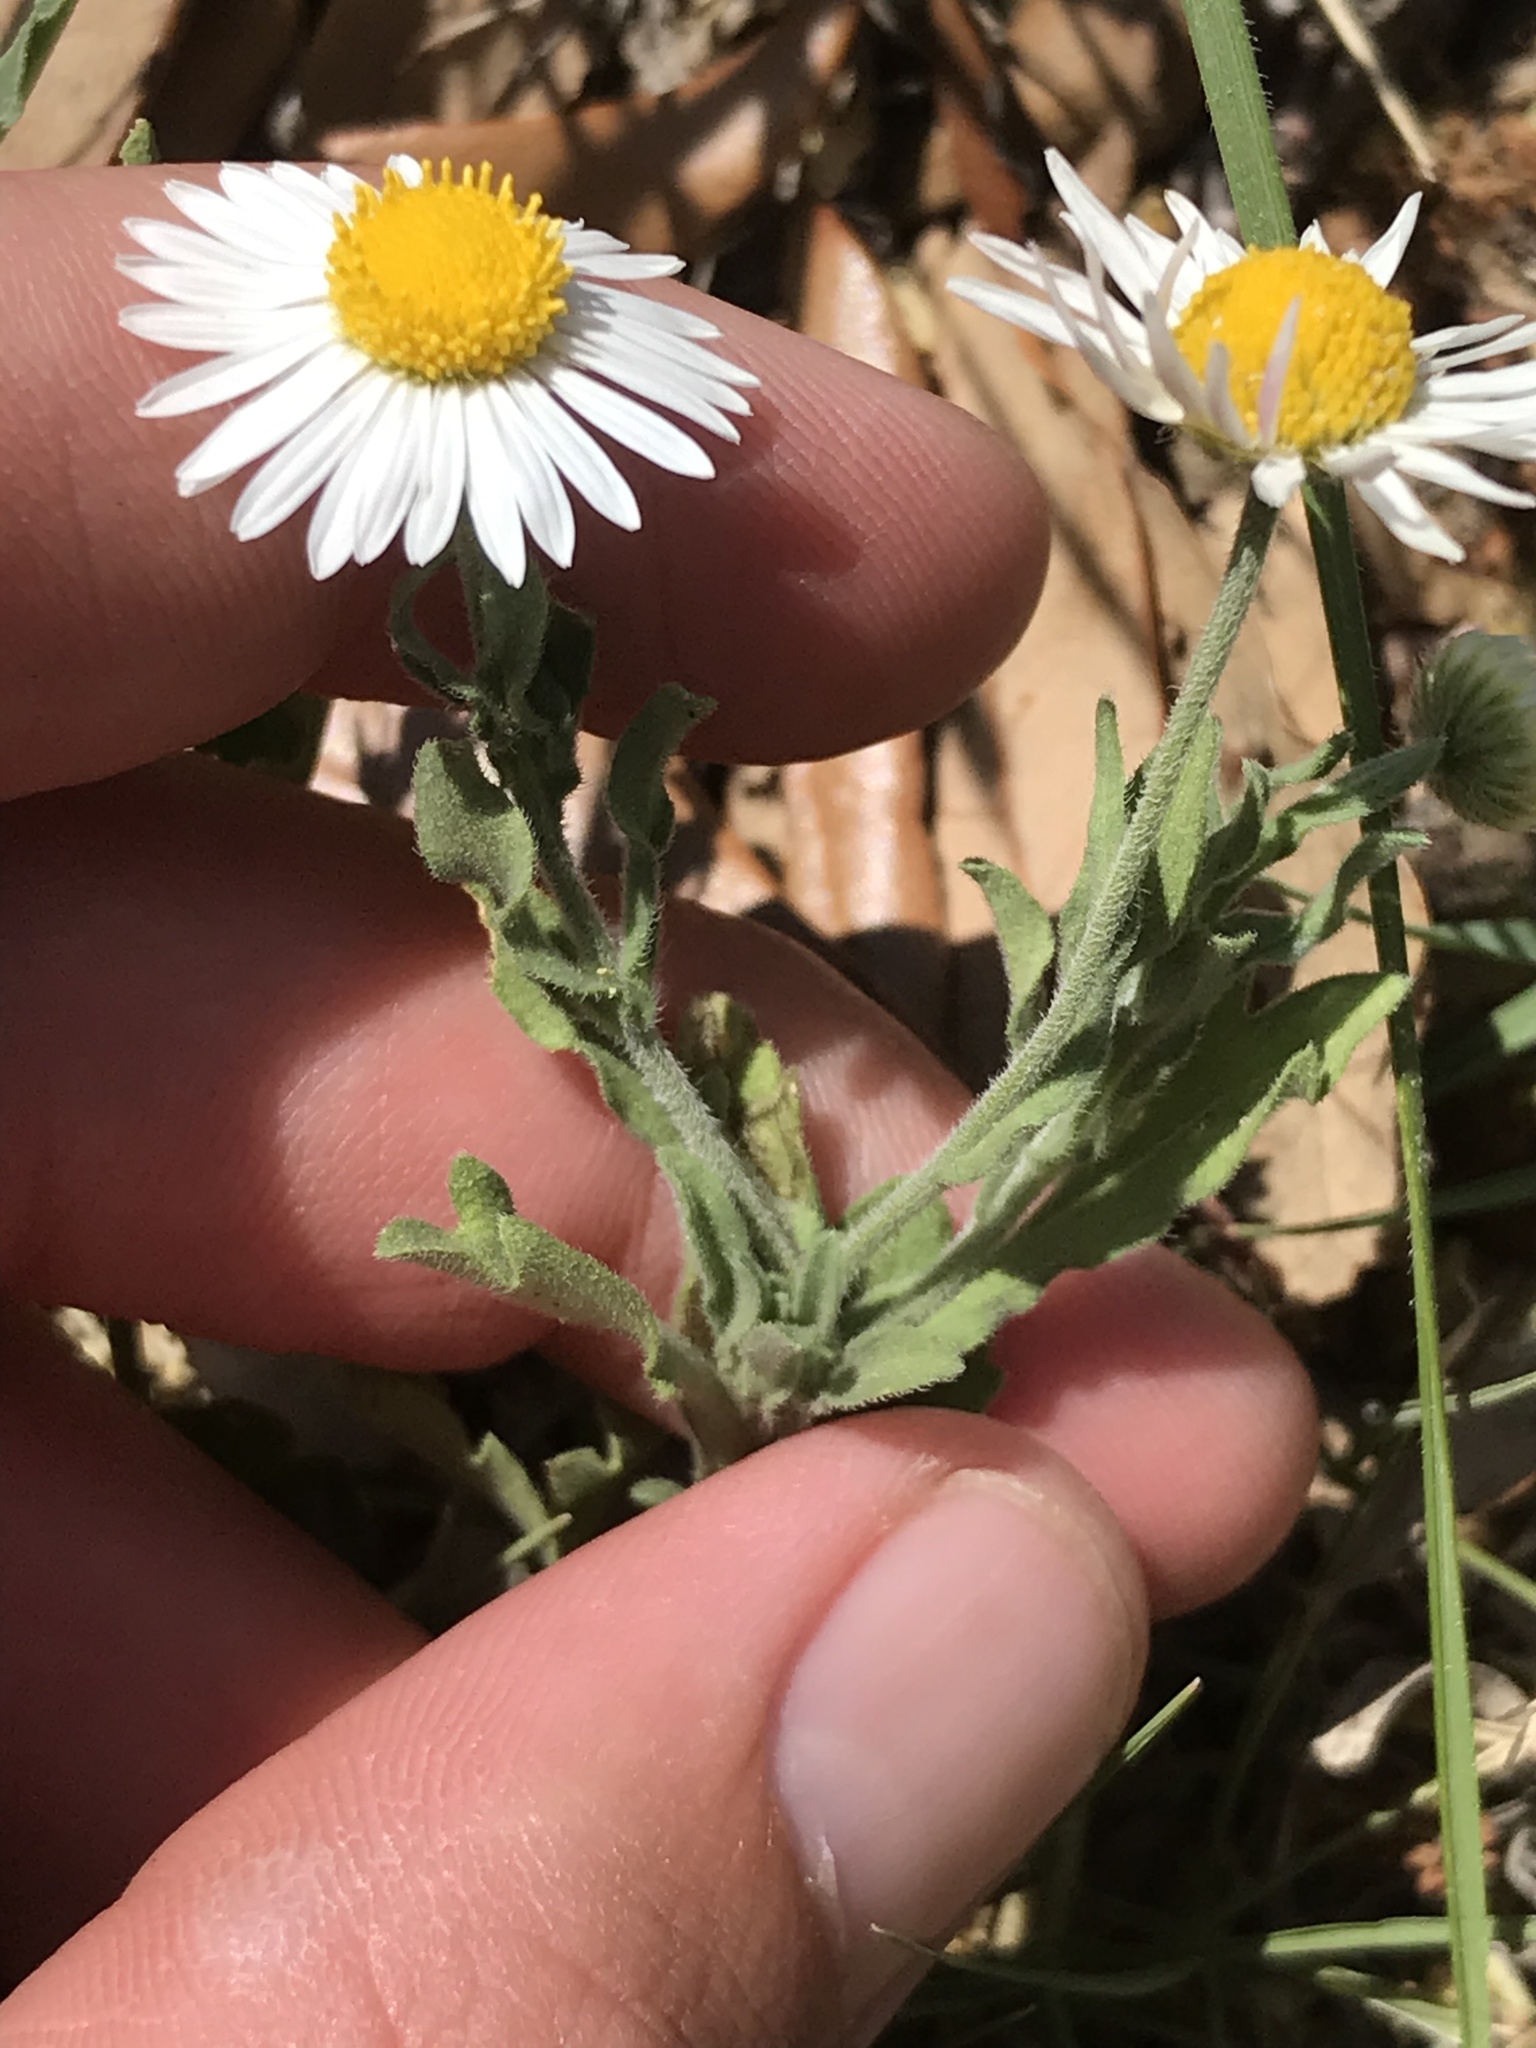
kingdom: Plantae
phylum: Tracheophyta
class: Magnoliopsida
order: Asterales
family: Asteraceae
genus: Aphanostephus
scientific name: Aphanostephus ramosissimus
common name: Plains lazy daisy
